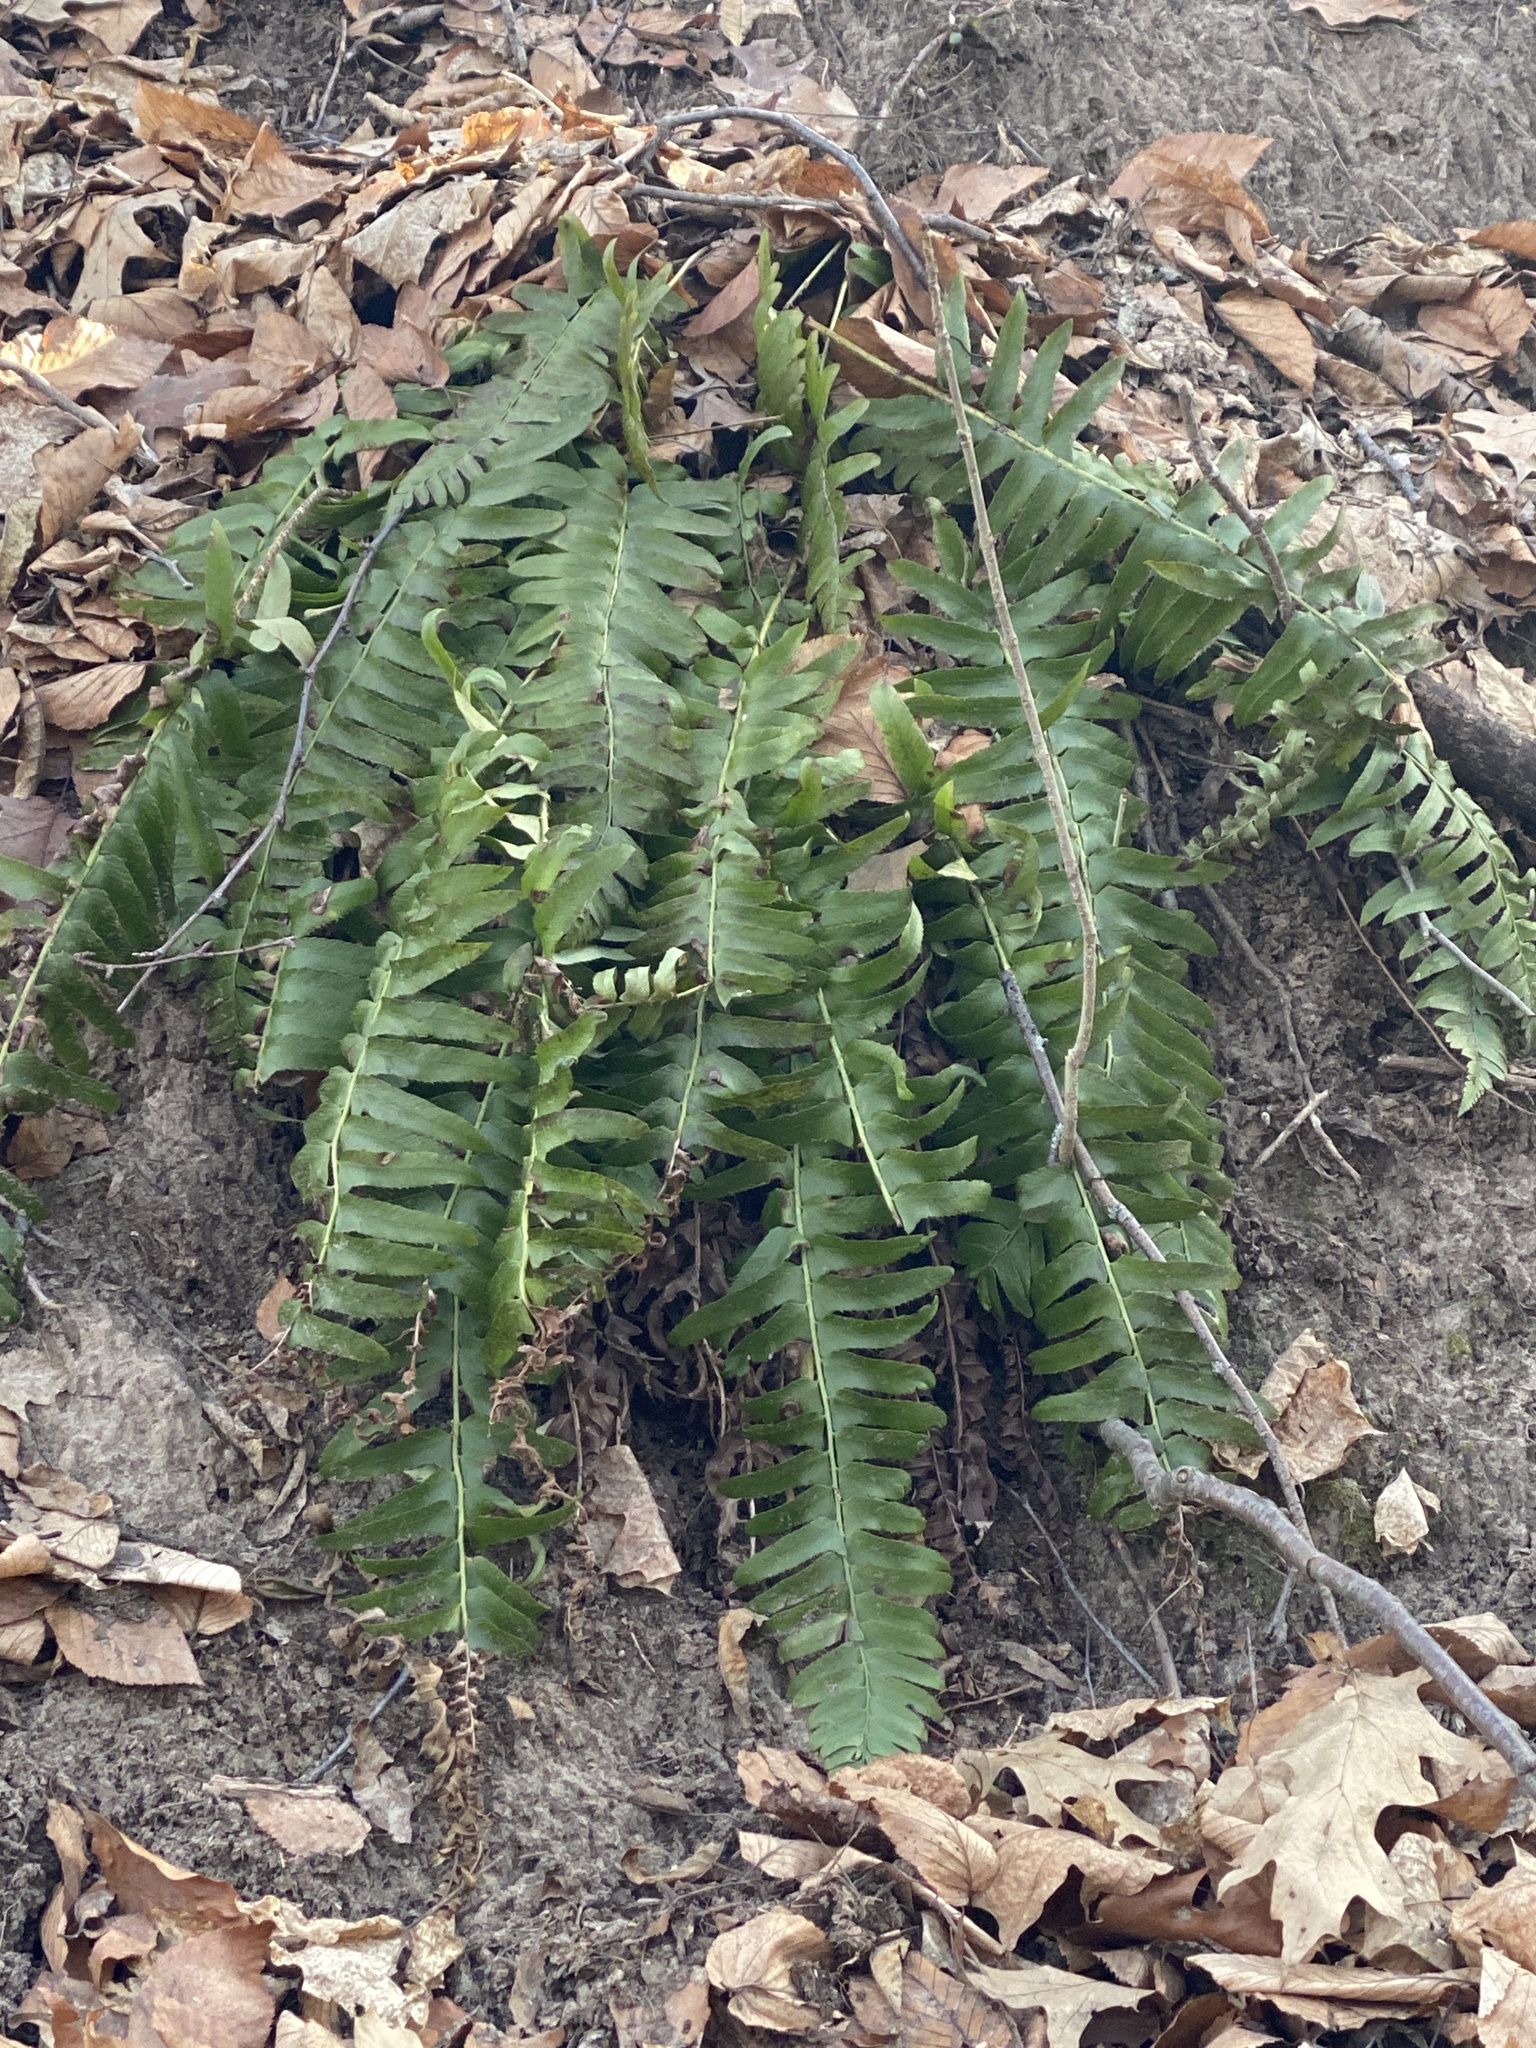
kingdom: Plantae
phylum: Tracheophyta
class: Polypodiopsida
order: Polypodiales
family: Dryopteridaceae
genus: Polystichum
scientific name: Polystichum acrostichoides
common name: Christmas fern
